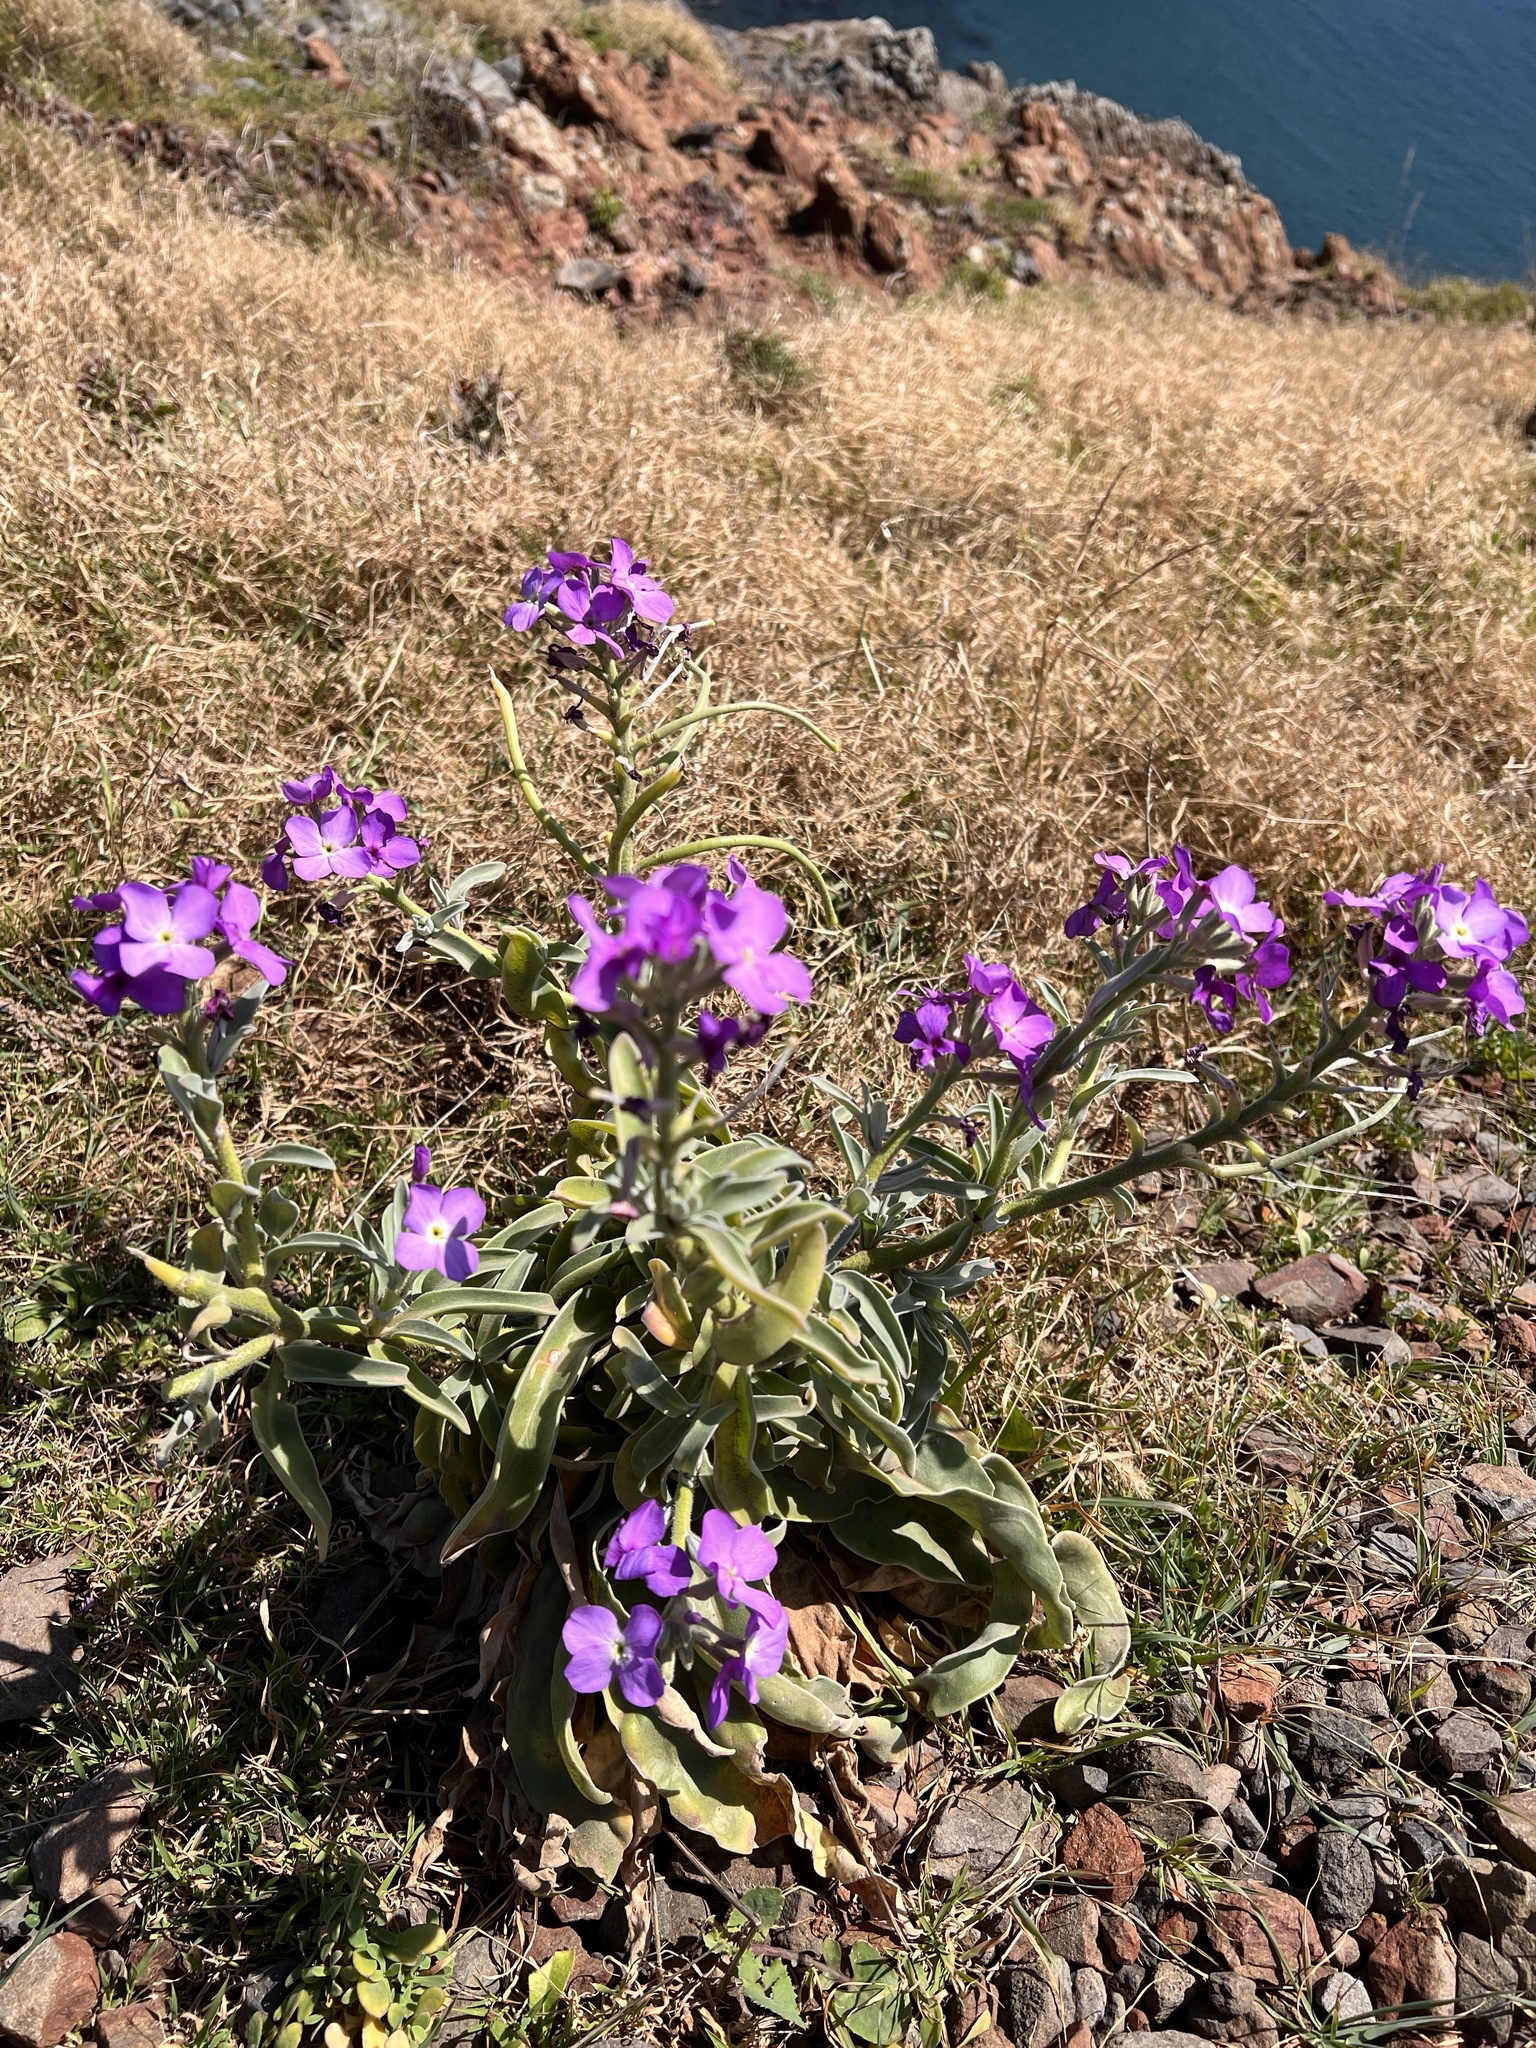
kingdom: Plantae
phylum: Tracheophyta
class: Magnoliopsida
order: Brassicales
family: Brassicaceae
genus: Matthiola
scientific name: Matthiola maderensis
